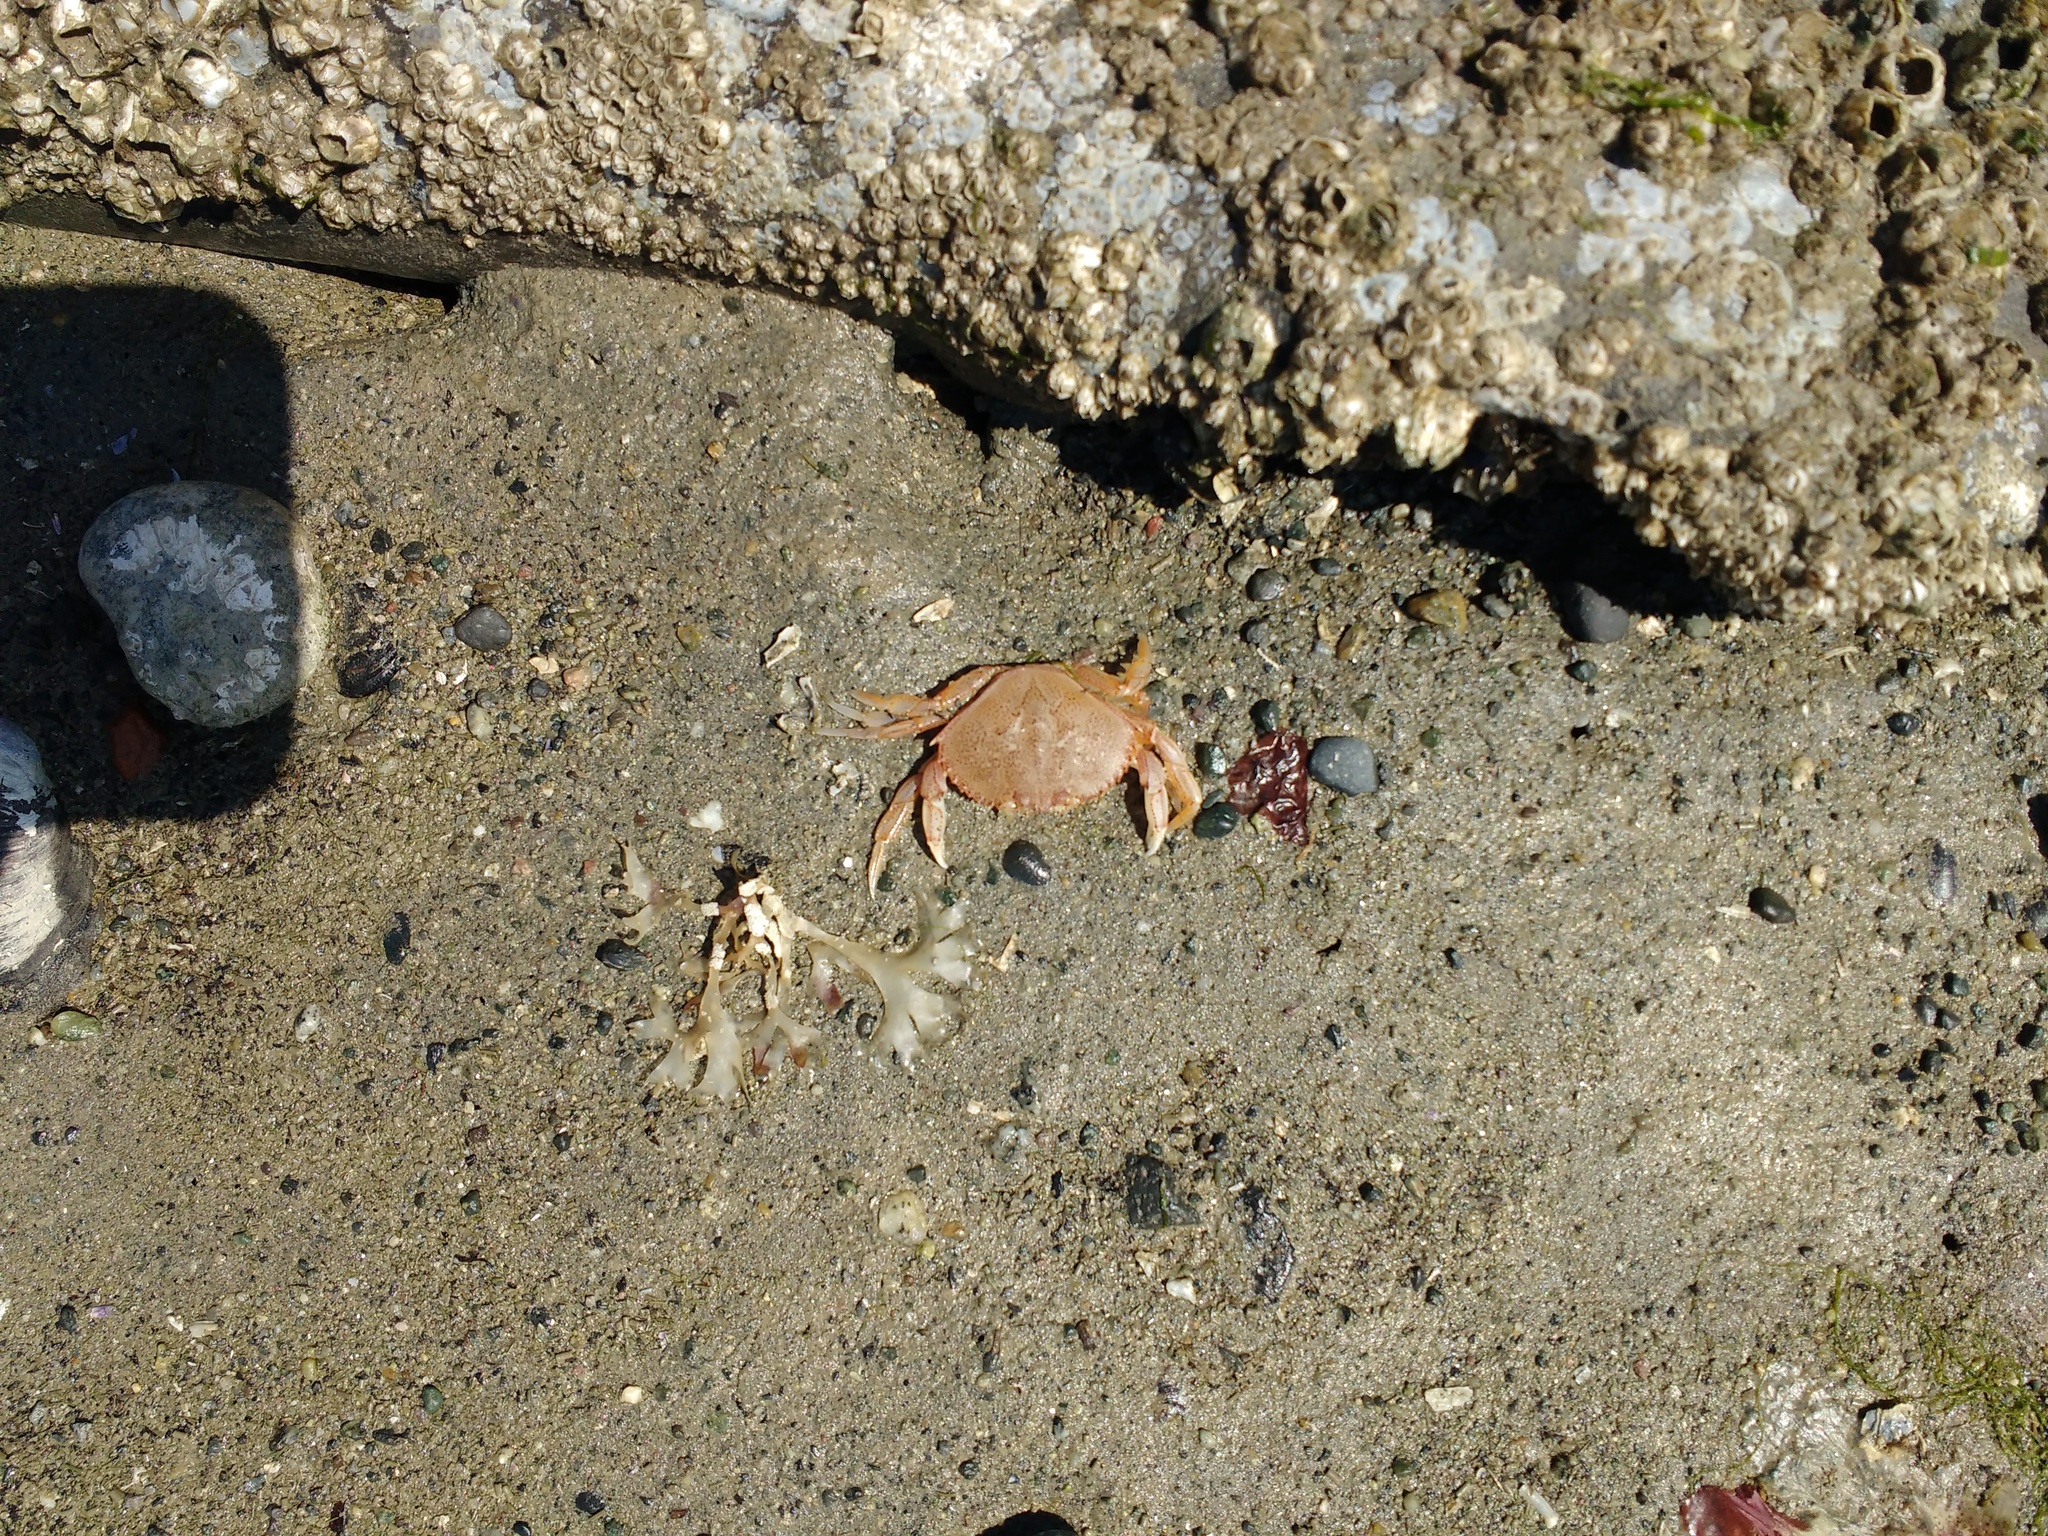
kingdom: Animalia
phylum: Arthropoda
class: Malacostraca
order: Decapoda
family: Cancridae
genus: Metacarcinus
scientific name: Metacarcinus magister
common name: Californian crab
